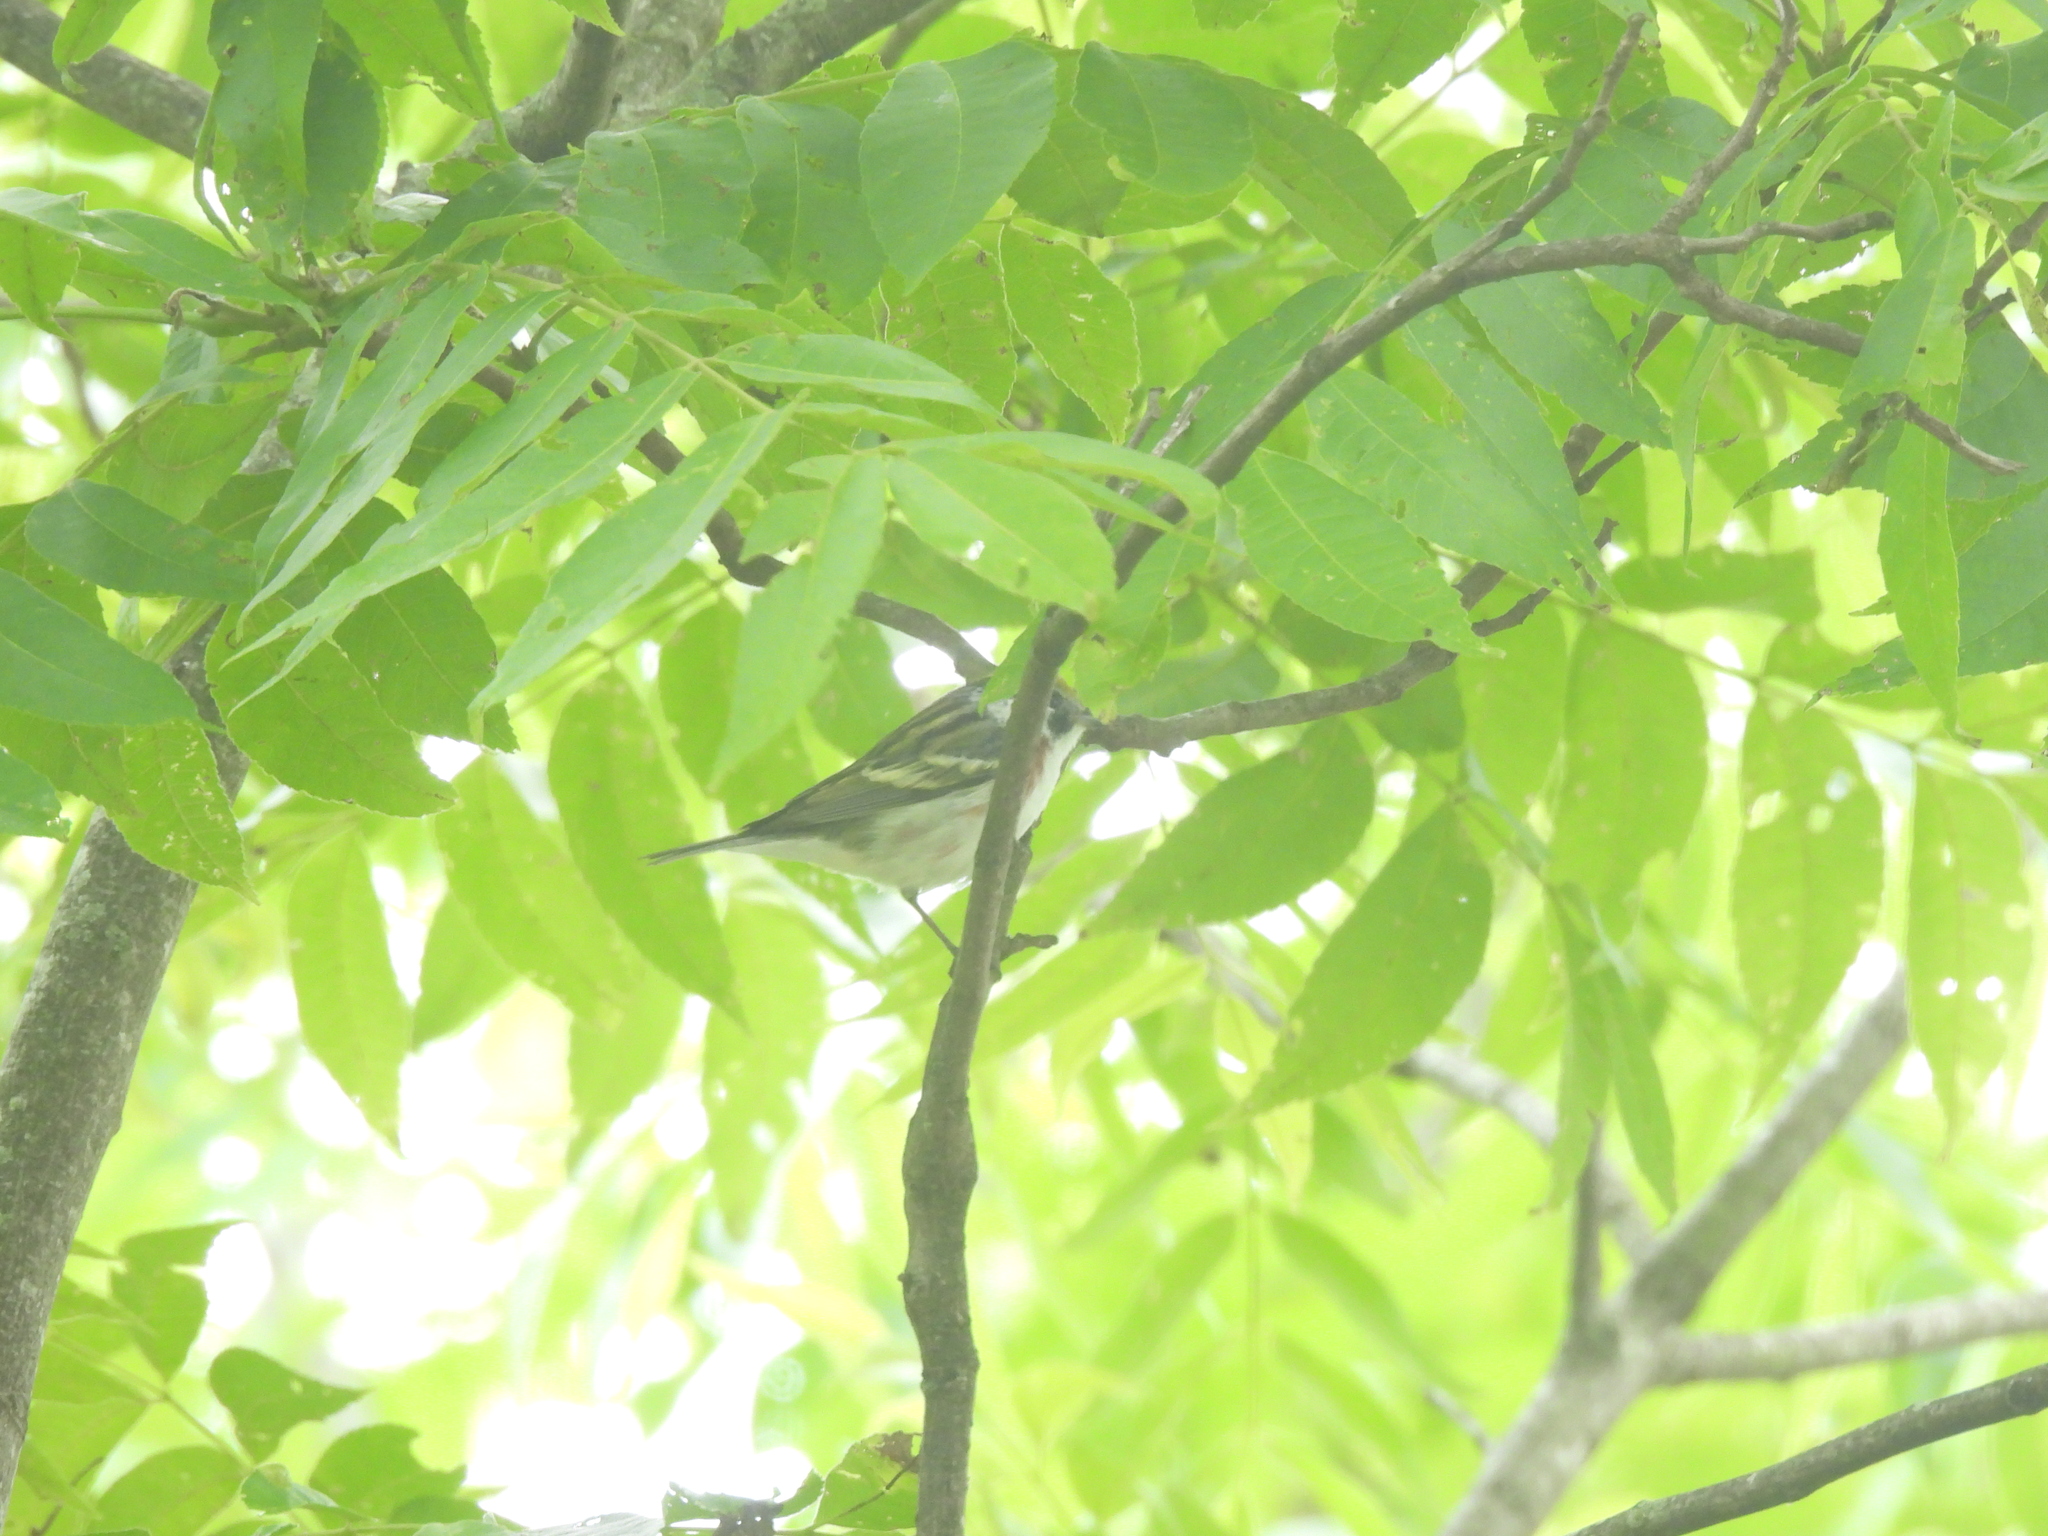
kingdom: Animalia
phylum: Chordata
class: Aves
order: Passeriformes
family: Parulidae
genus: Setophaga
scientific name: Setophaga pensylvanica
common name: Chestnut-sided warbler
